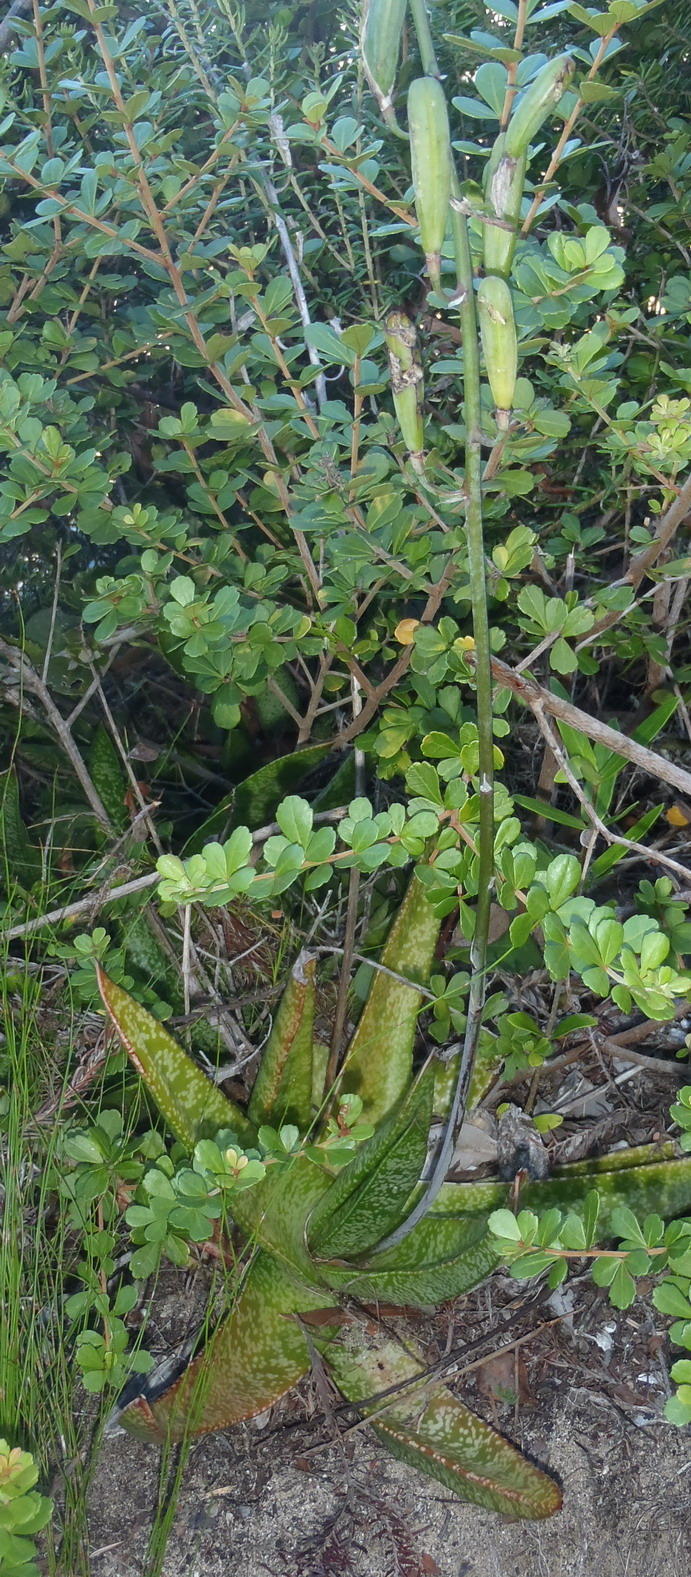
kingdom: Plantae
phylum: Tracheophyta
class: Liliopsida
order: Asparagales
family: Asphodelaceae
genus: Gasteria
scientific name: Gasteria acinacifolia
